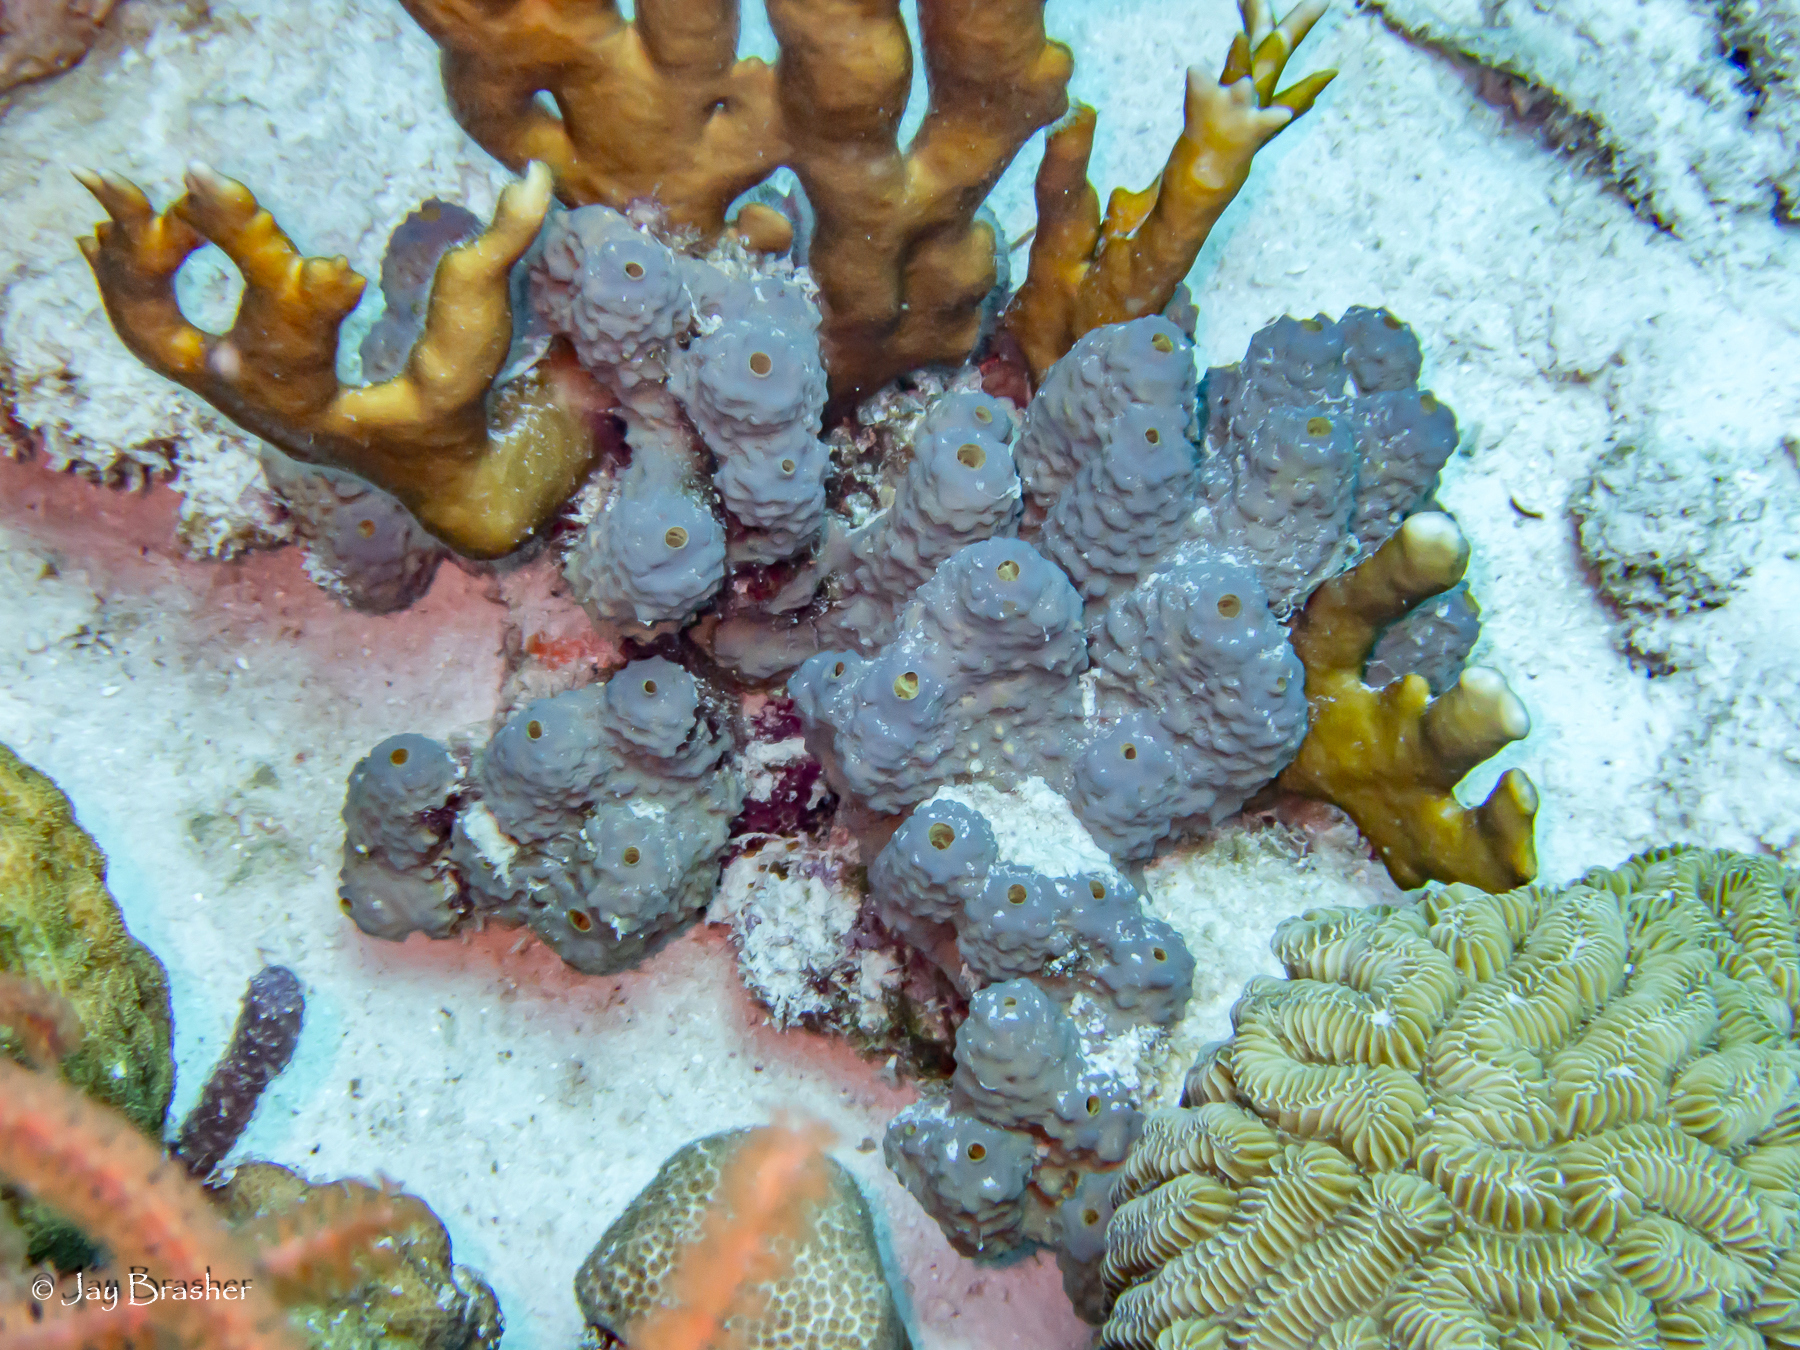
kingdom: Animalia
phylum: Cnidaria
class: Anthozoa
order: Scleractinia
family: Meandrinidae
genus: Meandrina
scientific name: Meandrina meandrites
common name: Maze coral
